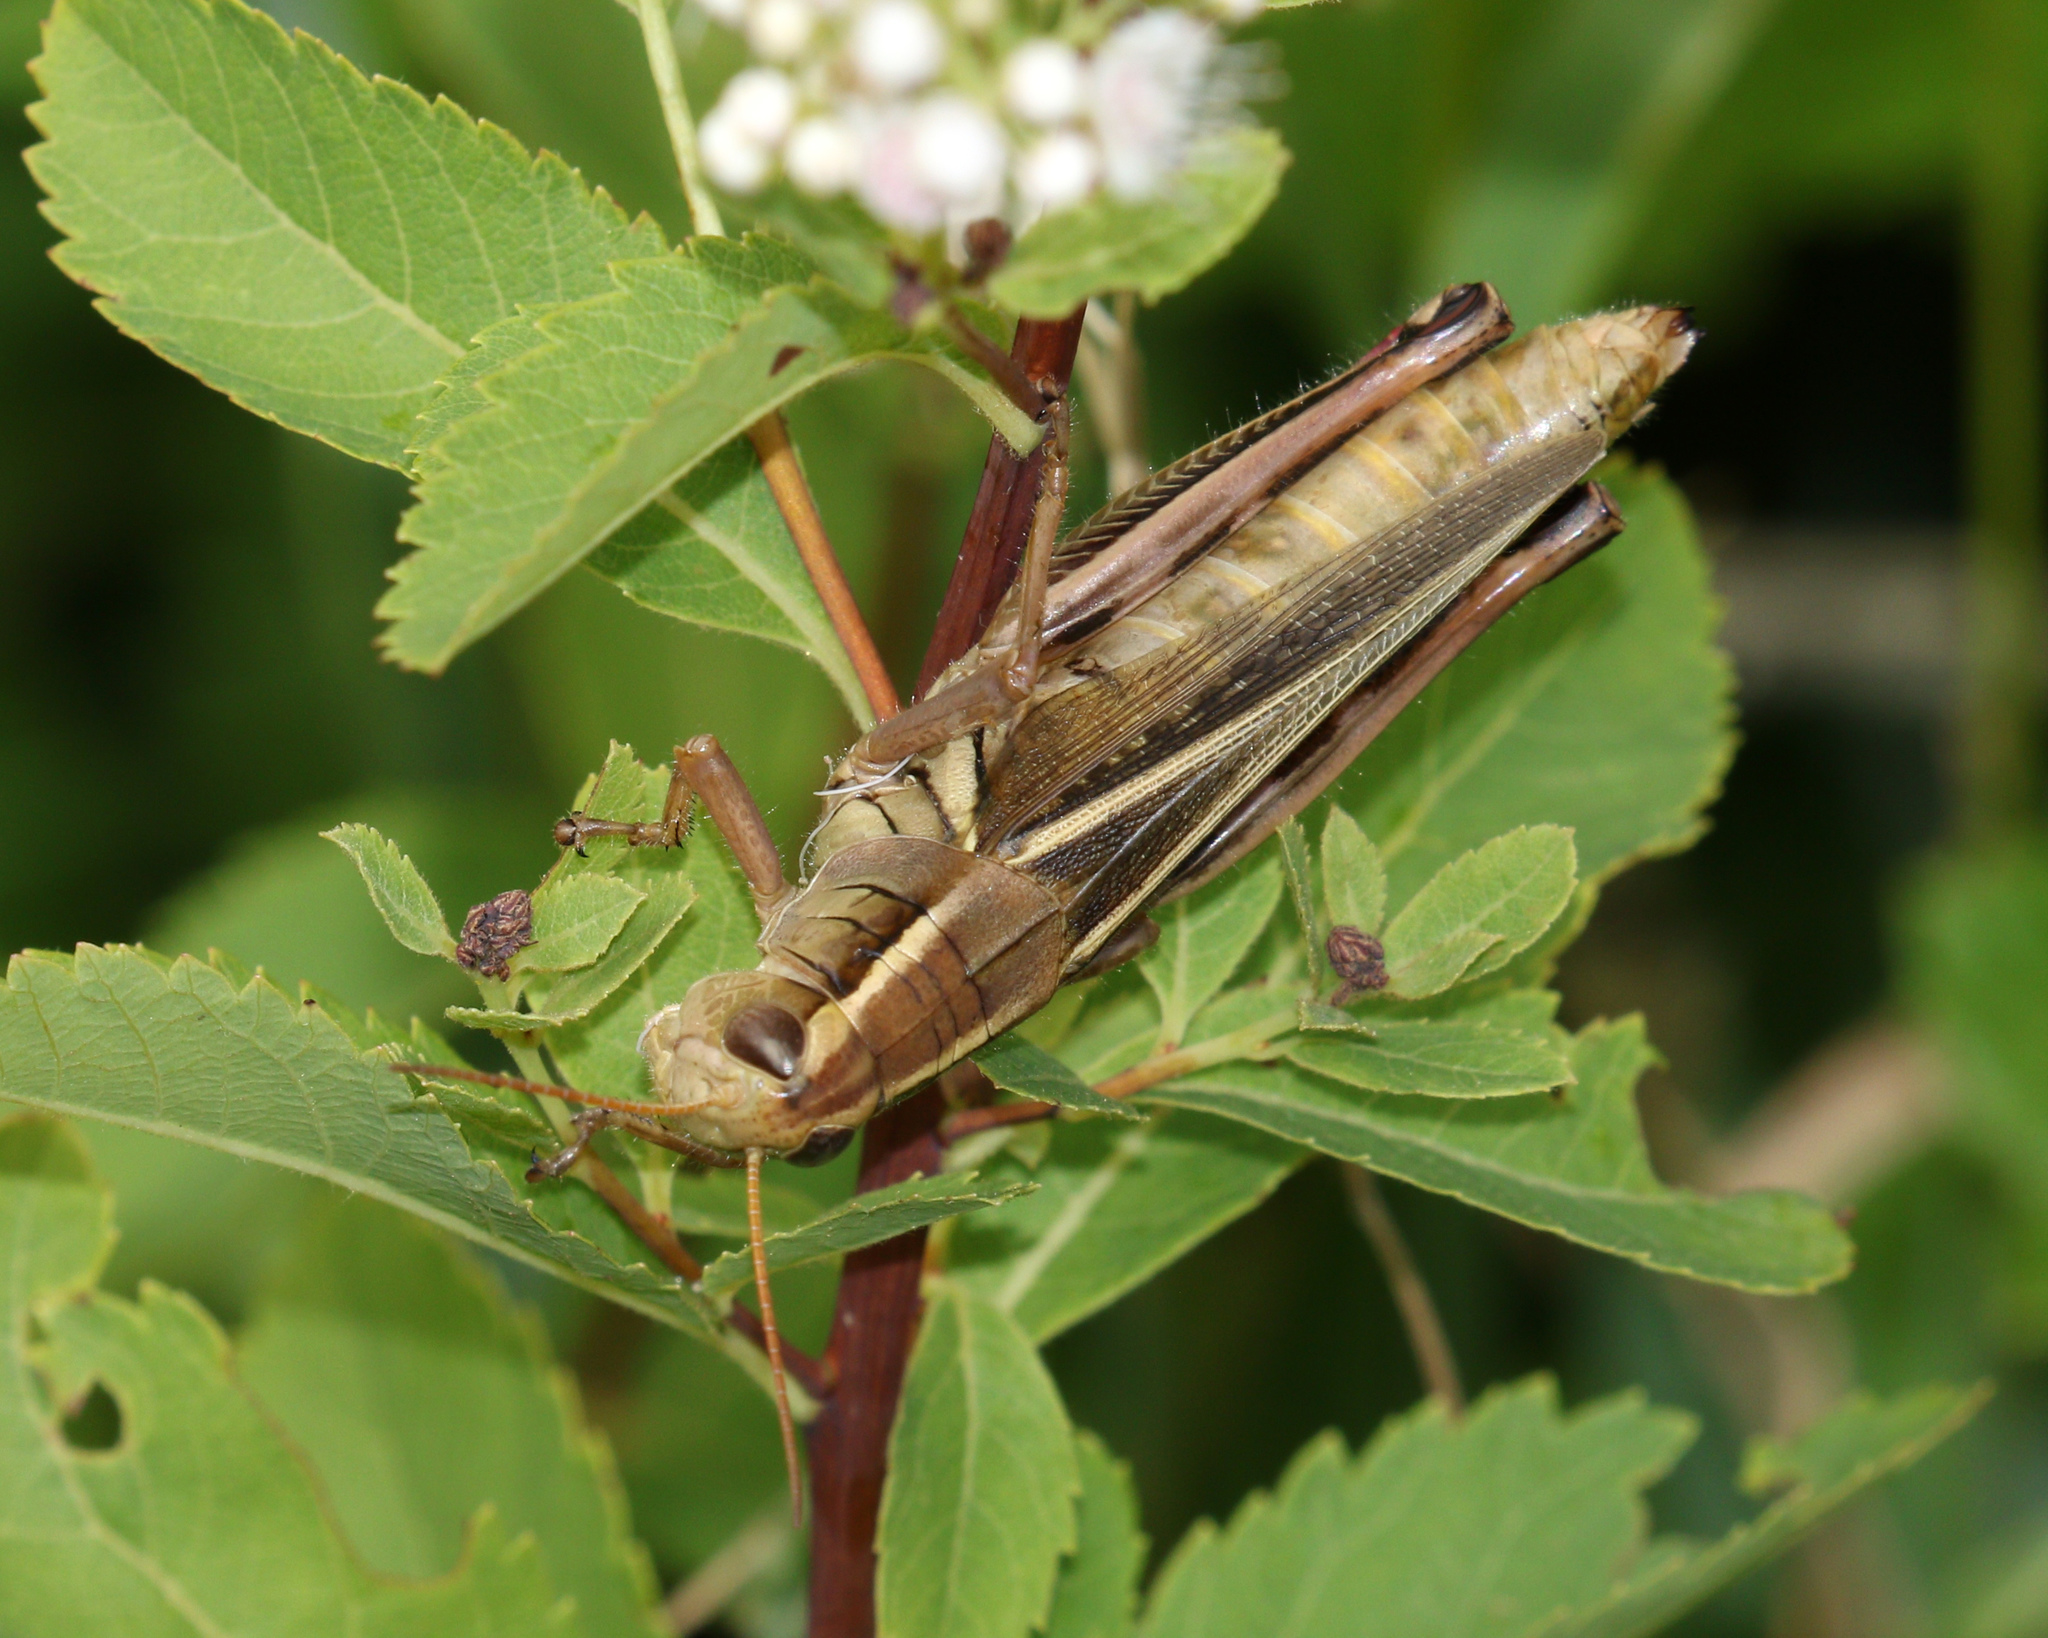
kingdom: Animalia
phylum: Arthropoda
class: Insecta
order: Orthoptera
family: Acrididae
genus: Melanoplus
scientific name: Melanoplus bivittatus
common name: Two-striped grasshopper
